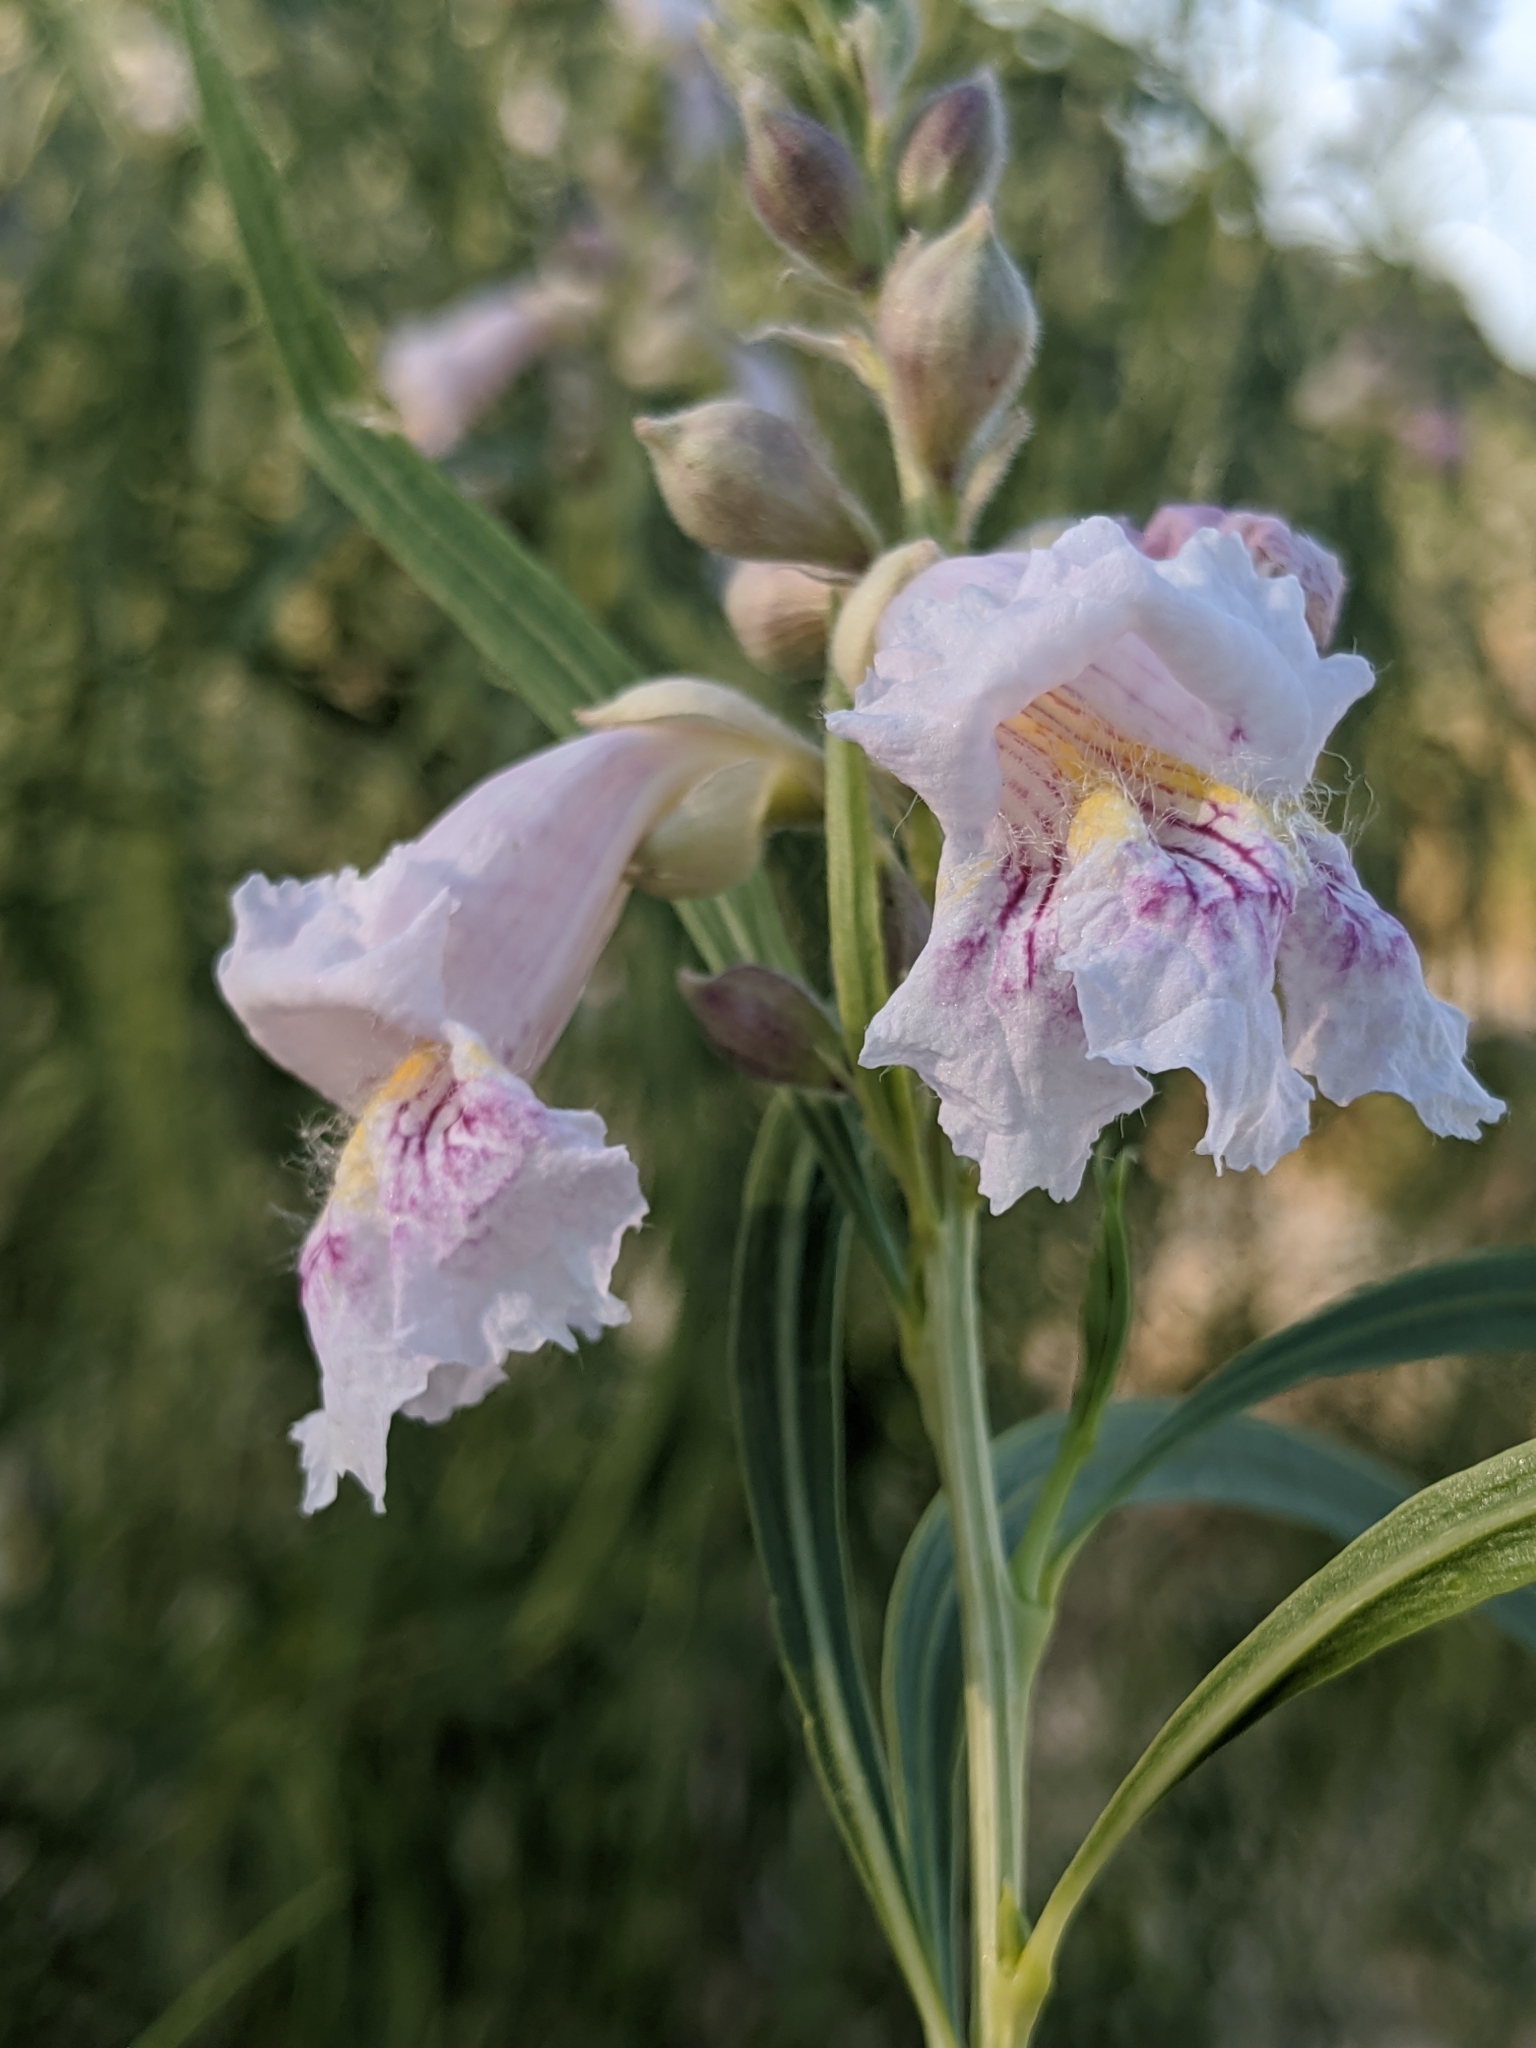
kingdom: Plantae
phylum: Tracheophyta
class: Magnoliopsida
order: Lamiales
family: Bignoniaceae
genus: Chilopsis
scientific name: Chilopsis linearis
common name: Desert-willow
